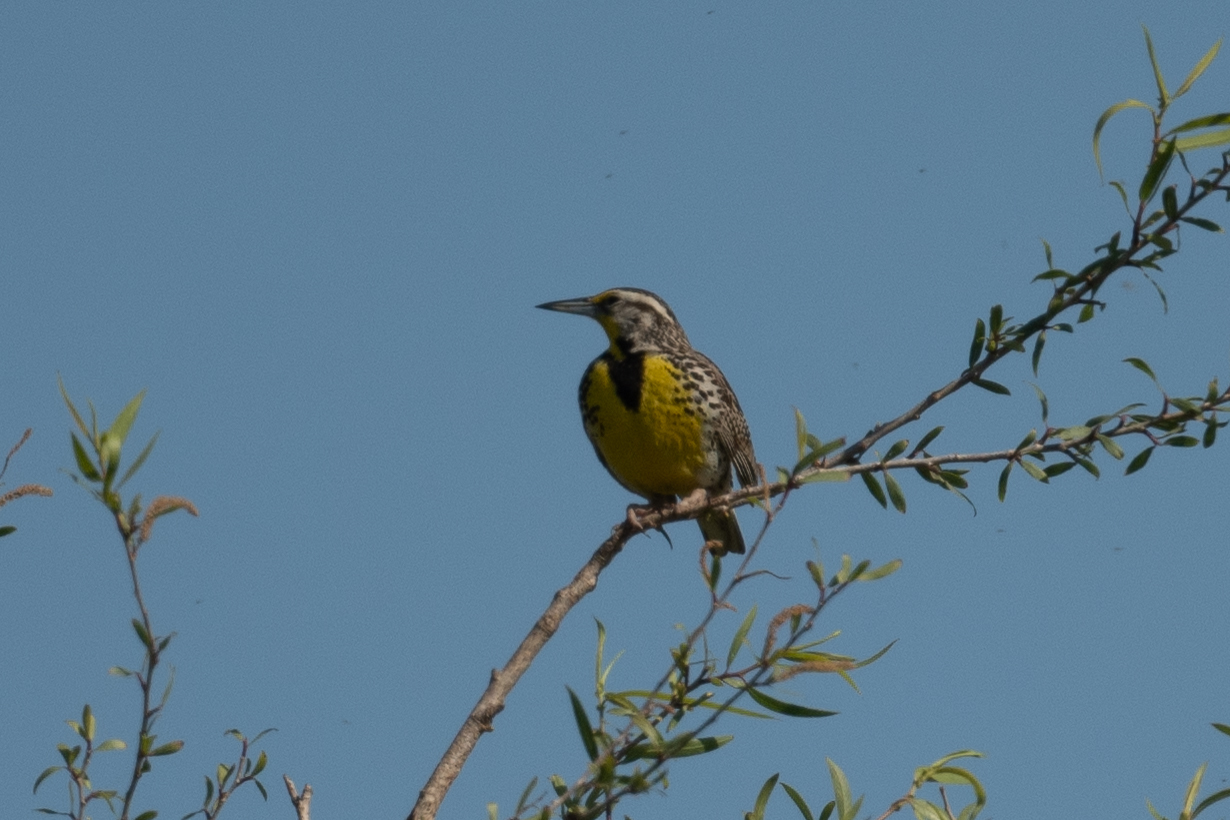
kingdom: Animalia
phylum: Chordata
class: Aves
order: Passeriformes
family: Icteridae
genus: Sturnella
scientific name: Sturnella neglecta
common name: Western meadowlark
